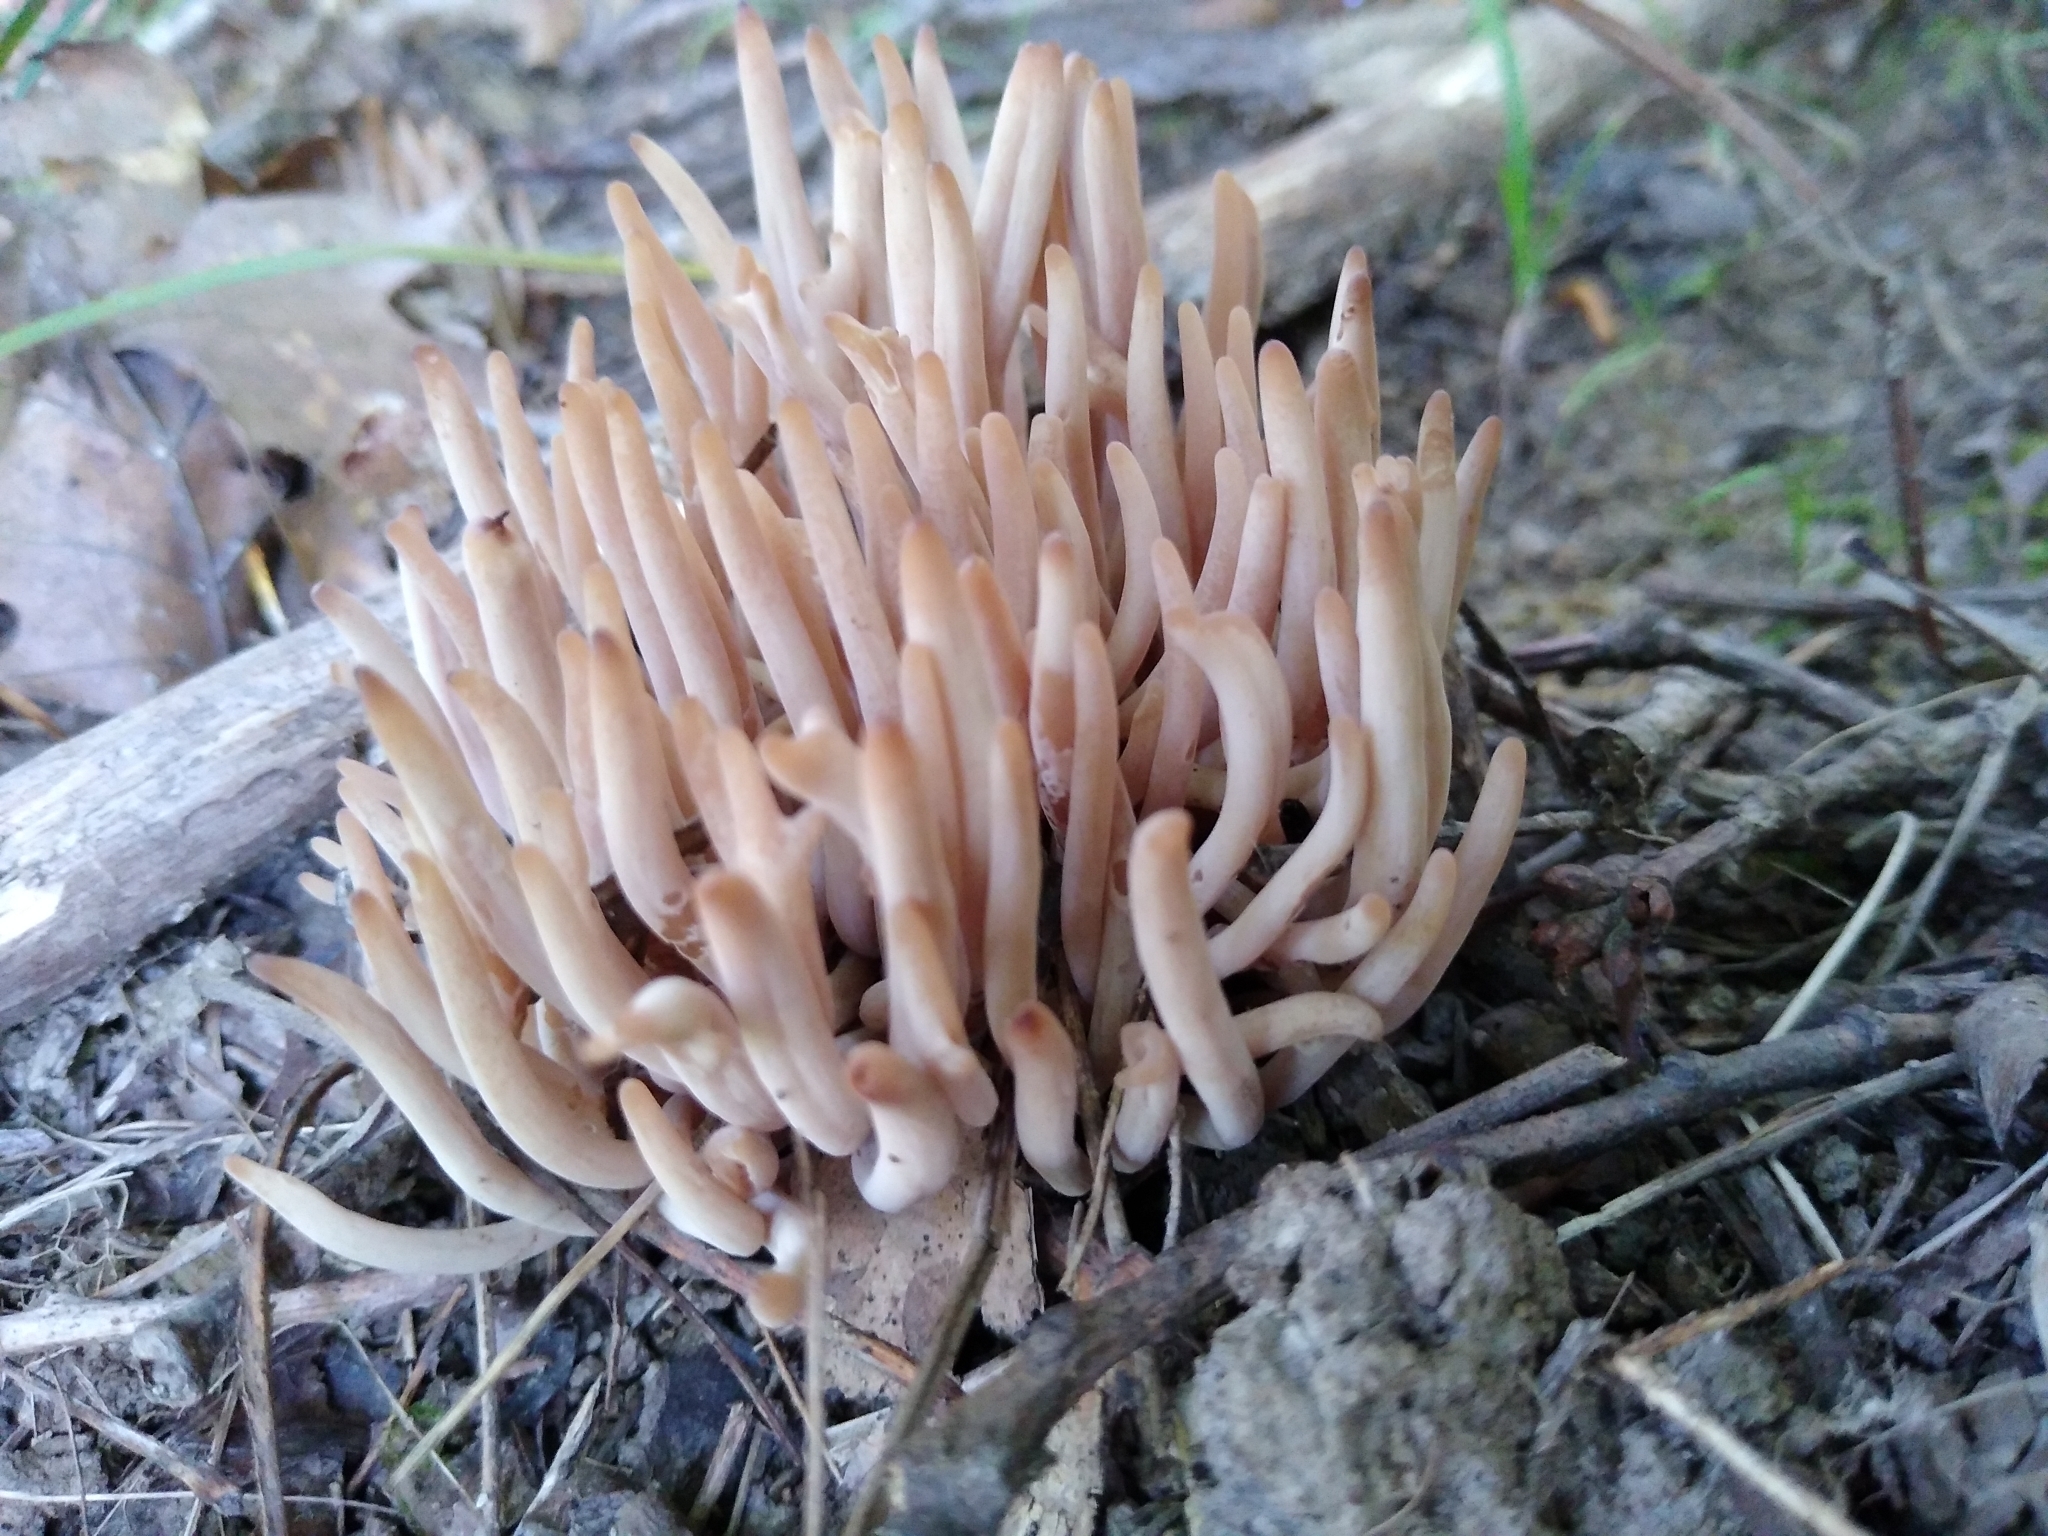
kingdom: Fungi
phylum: Basidiomycota
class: Agaricomycetes
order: Agaricales
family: Clavariaceae
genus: Clavaria
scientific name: Clavaria fumosa
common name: Smoky spindles
